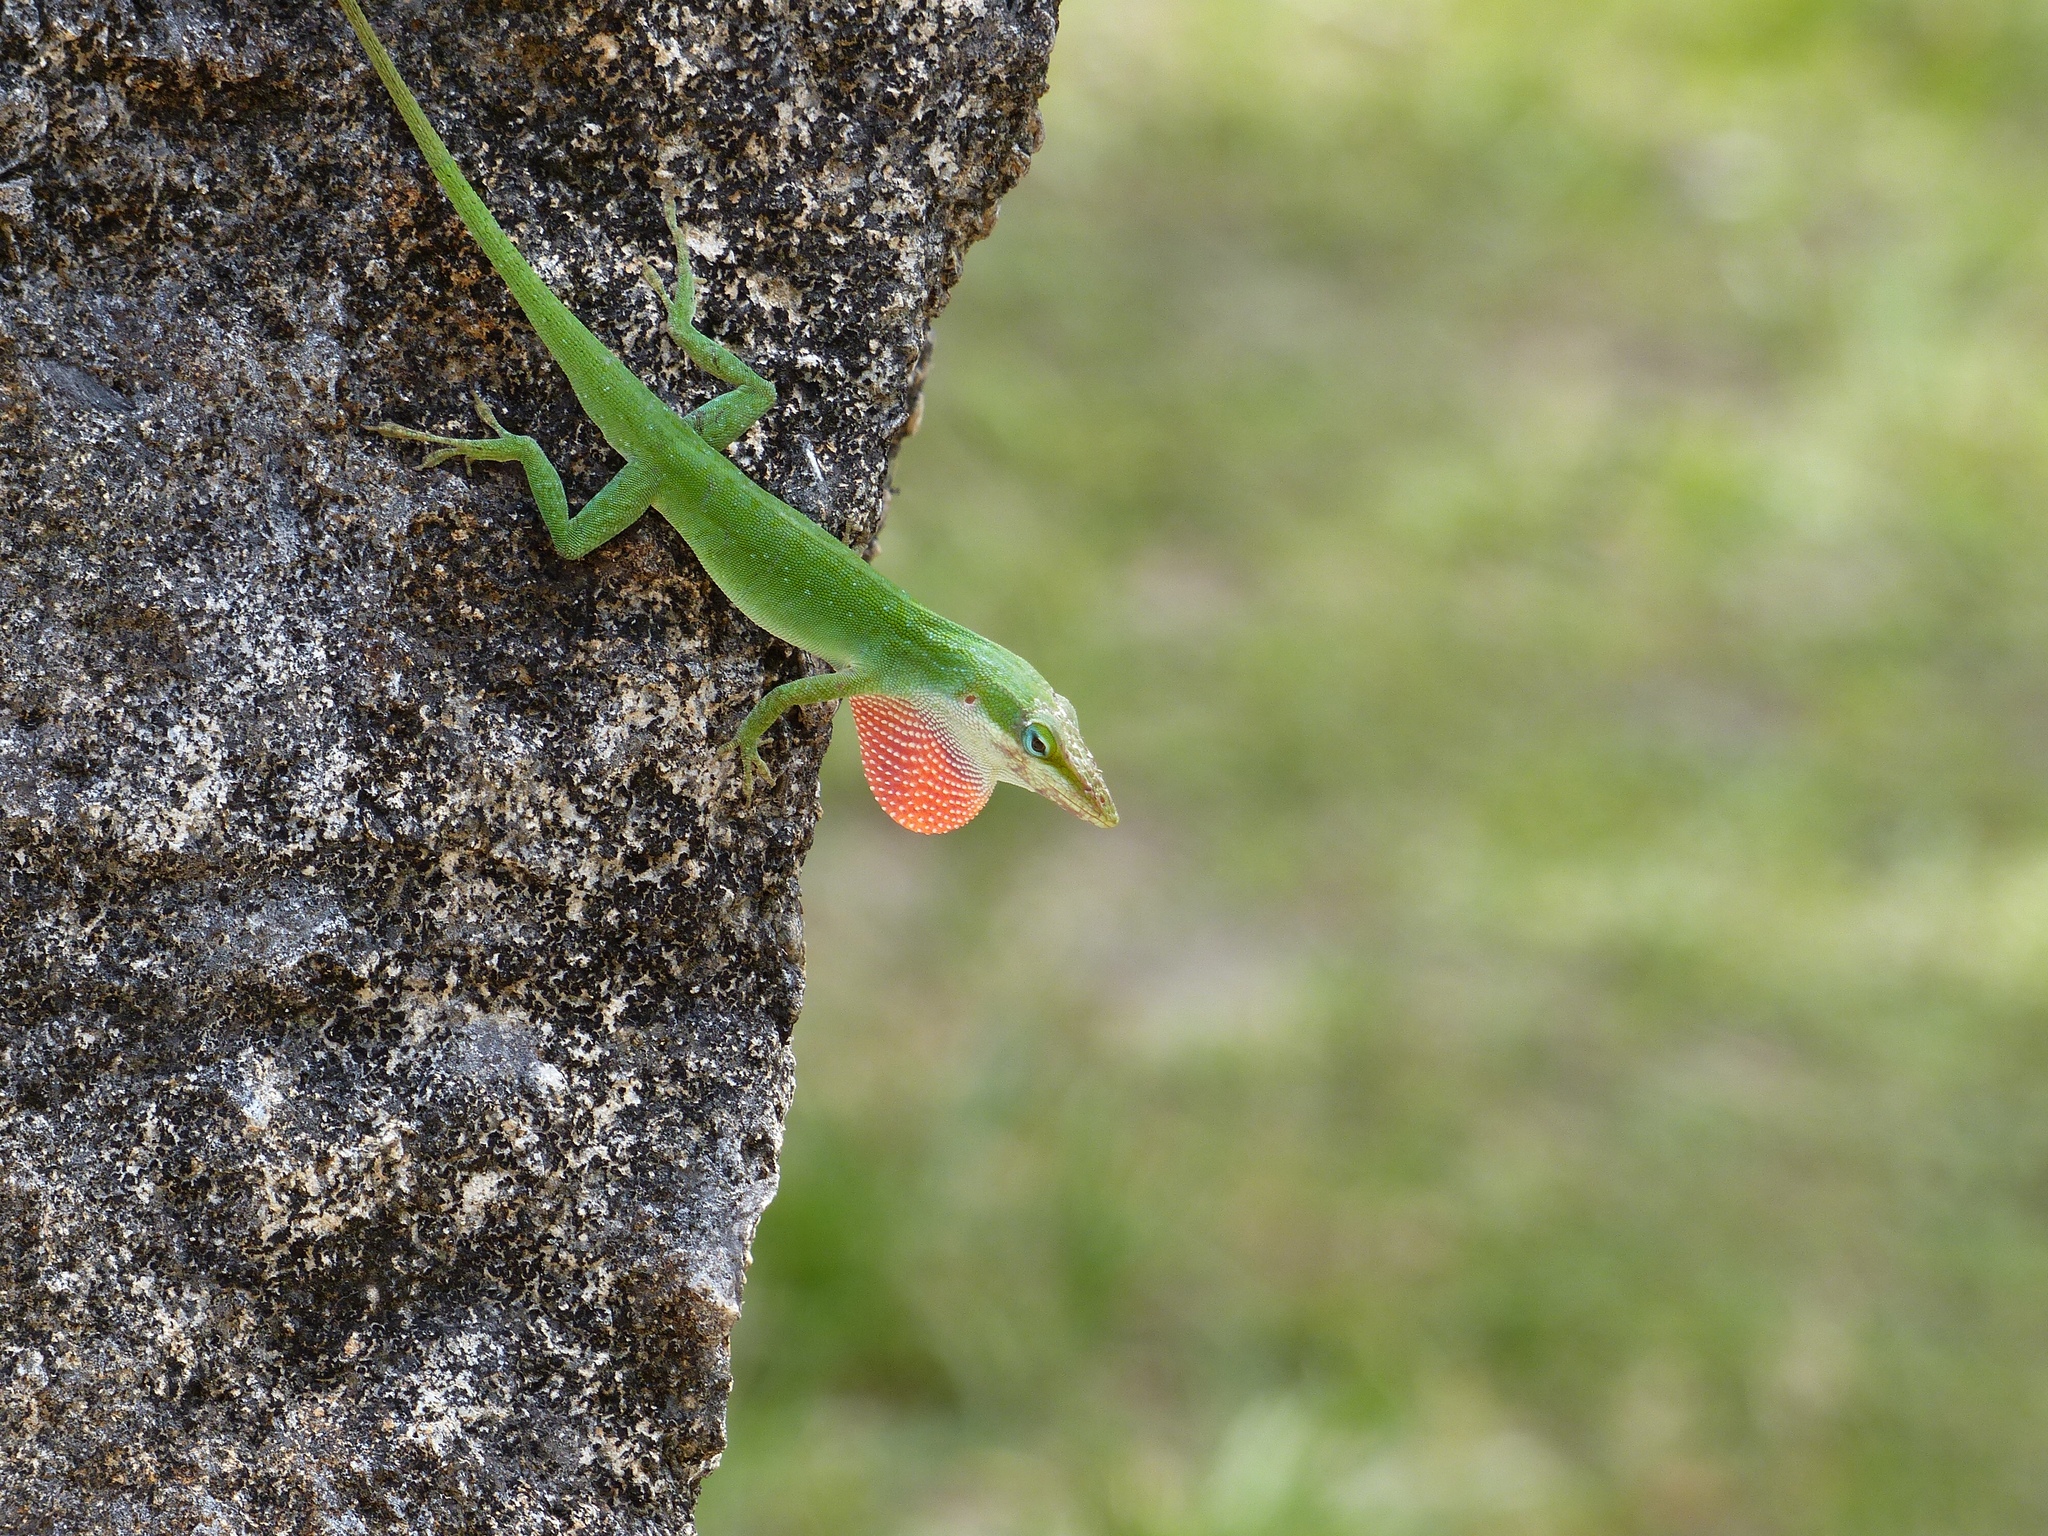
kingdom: Animalia
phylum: Chordata
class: Squamata
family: Dactyloidae
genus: Anolis
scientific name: Anolis carolinensis
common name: Green anole
